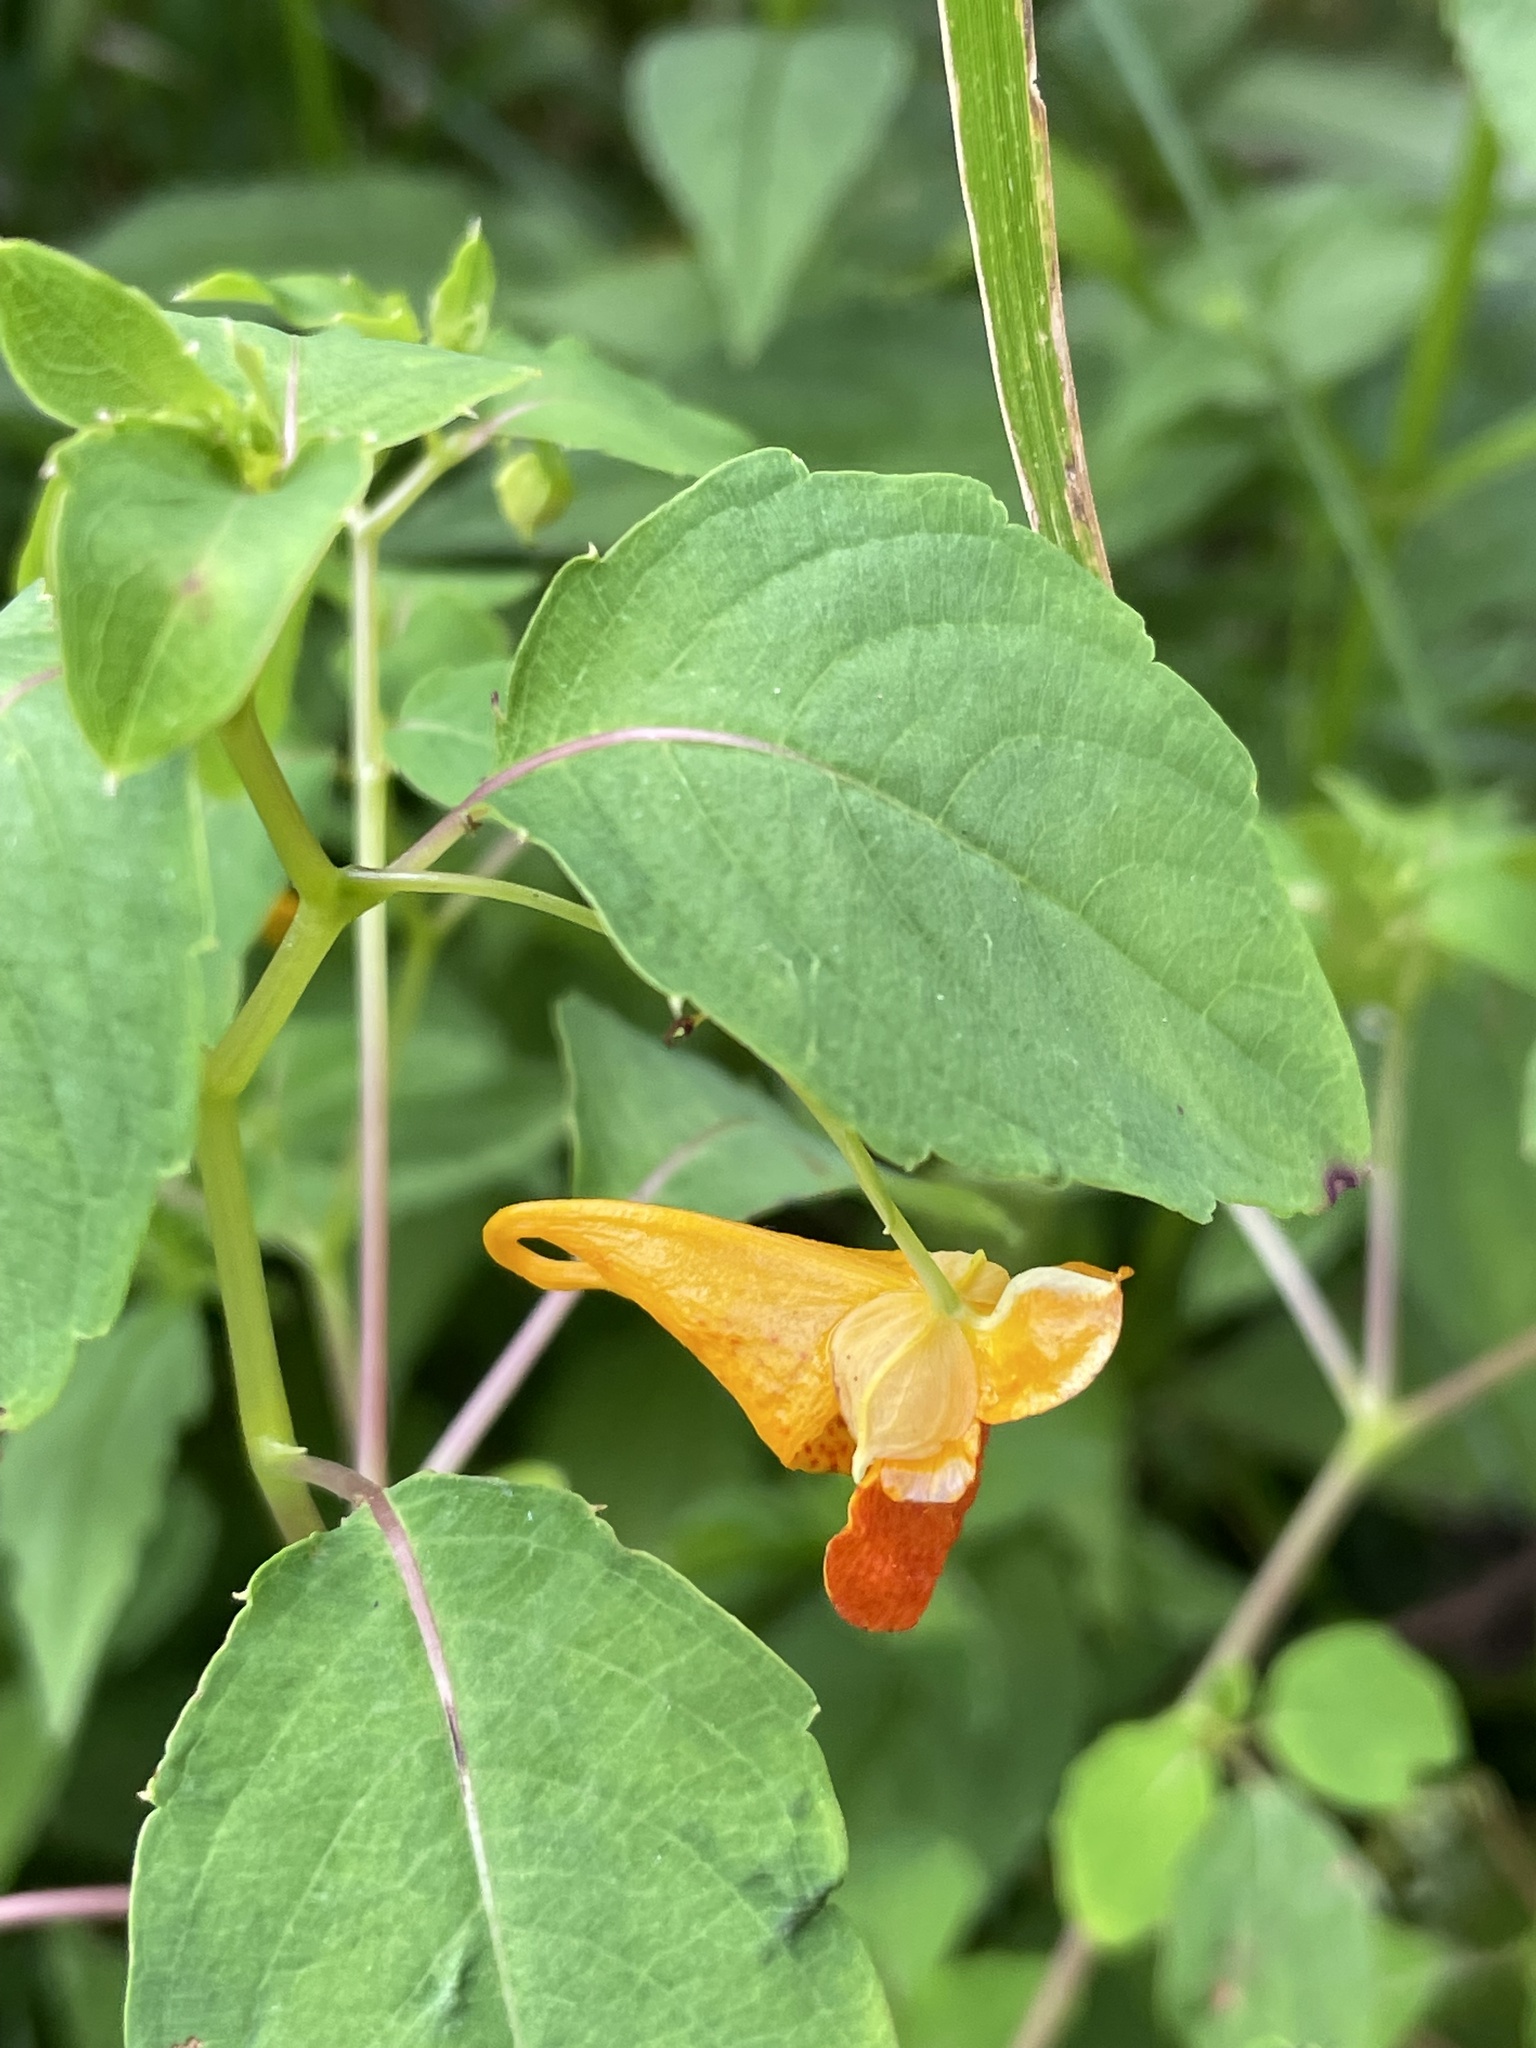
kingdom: Plantae
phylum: Tracheophyta
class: Magnoliopsida
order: Ericales
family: Balsaminaceae
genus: Impatiens
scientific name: Impatiens capensis
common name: Orange balsam
